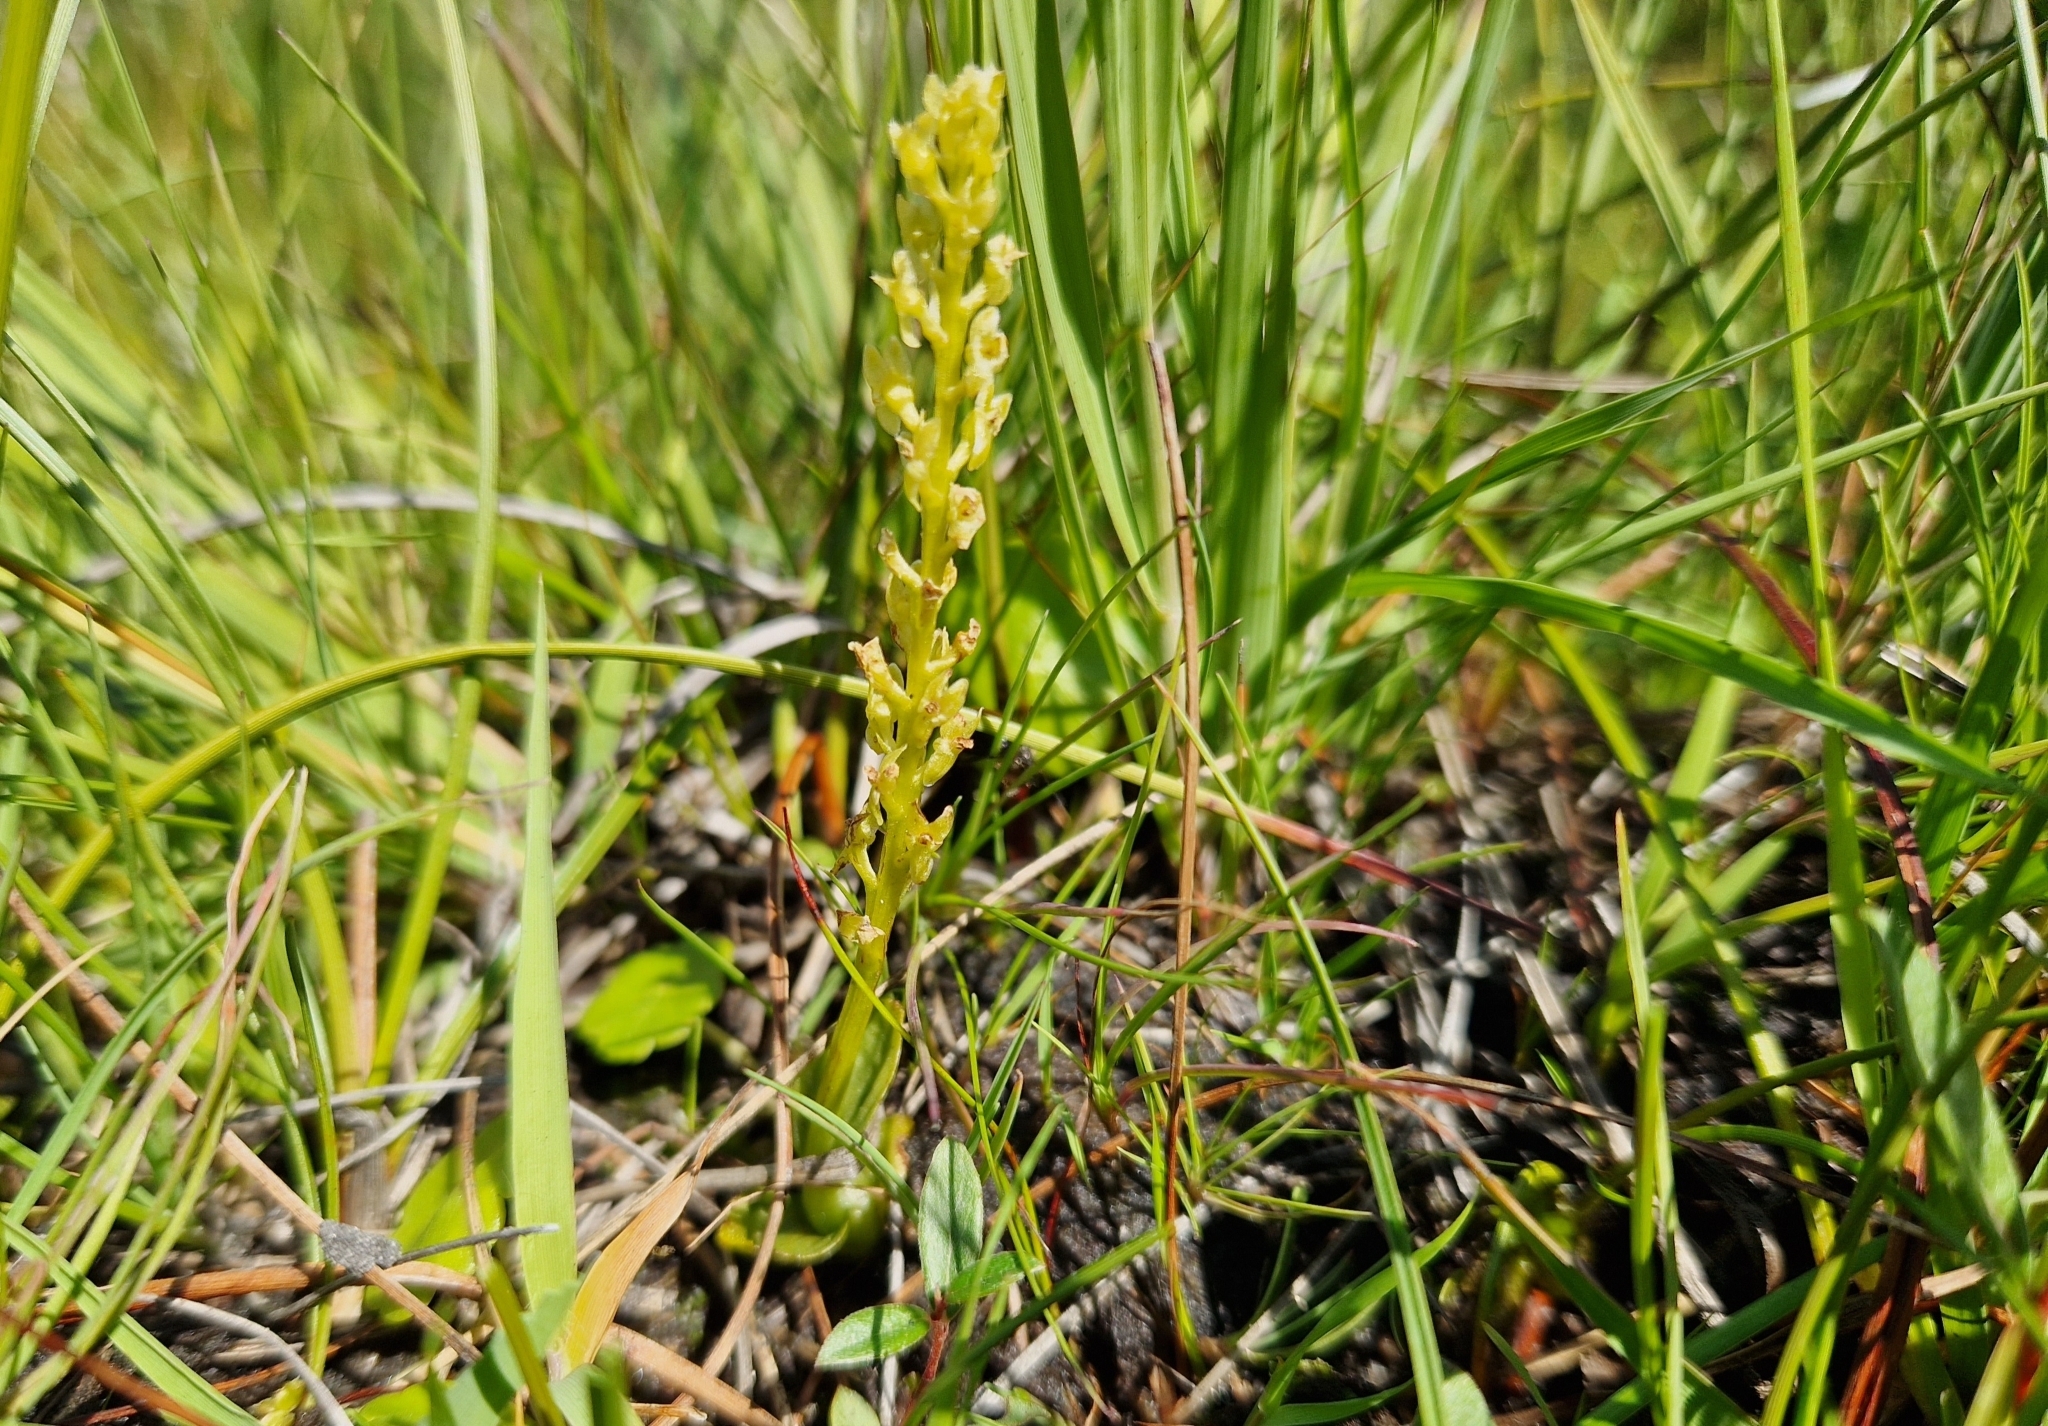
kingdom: Plantae
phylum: Tracheophyta
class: Liliopsida
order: Asparagales
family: Orchidaceae
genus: Hammarbya
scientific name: Hammarbya paludosa
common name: Bog orchid
